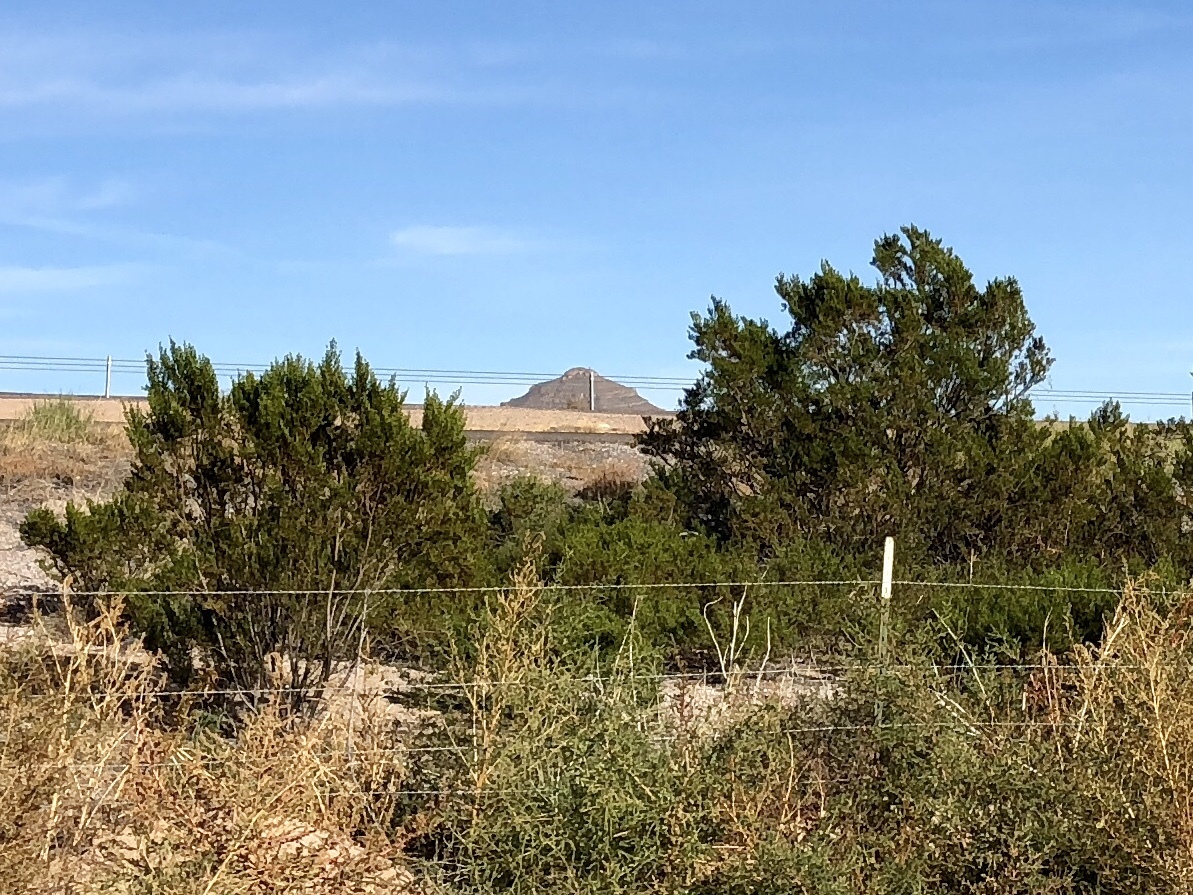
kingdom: Plantae
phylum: Tracheophyta
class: Magnoliopsida
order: Zygophyllales
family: Zygophyllaceae
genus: Larrea
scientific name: Larrea tridentata
